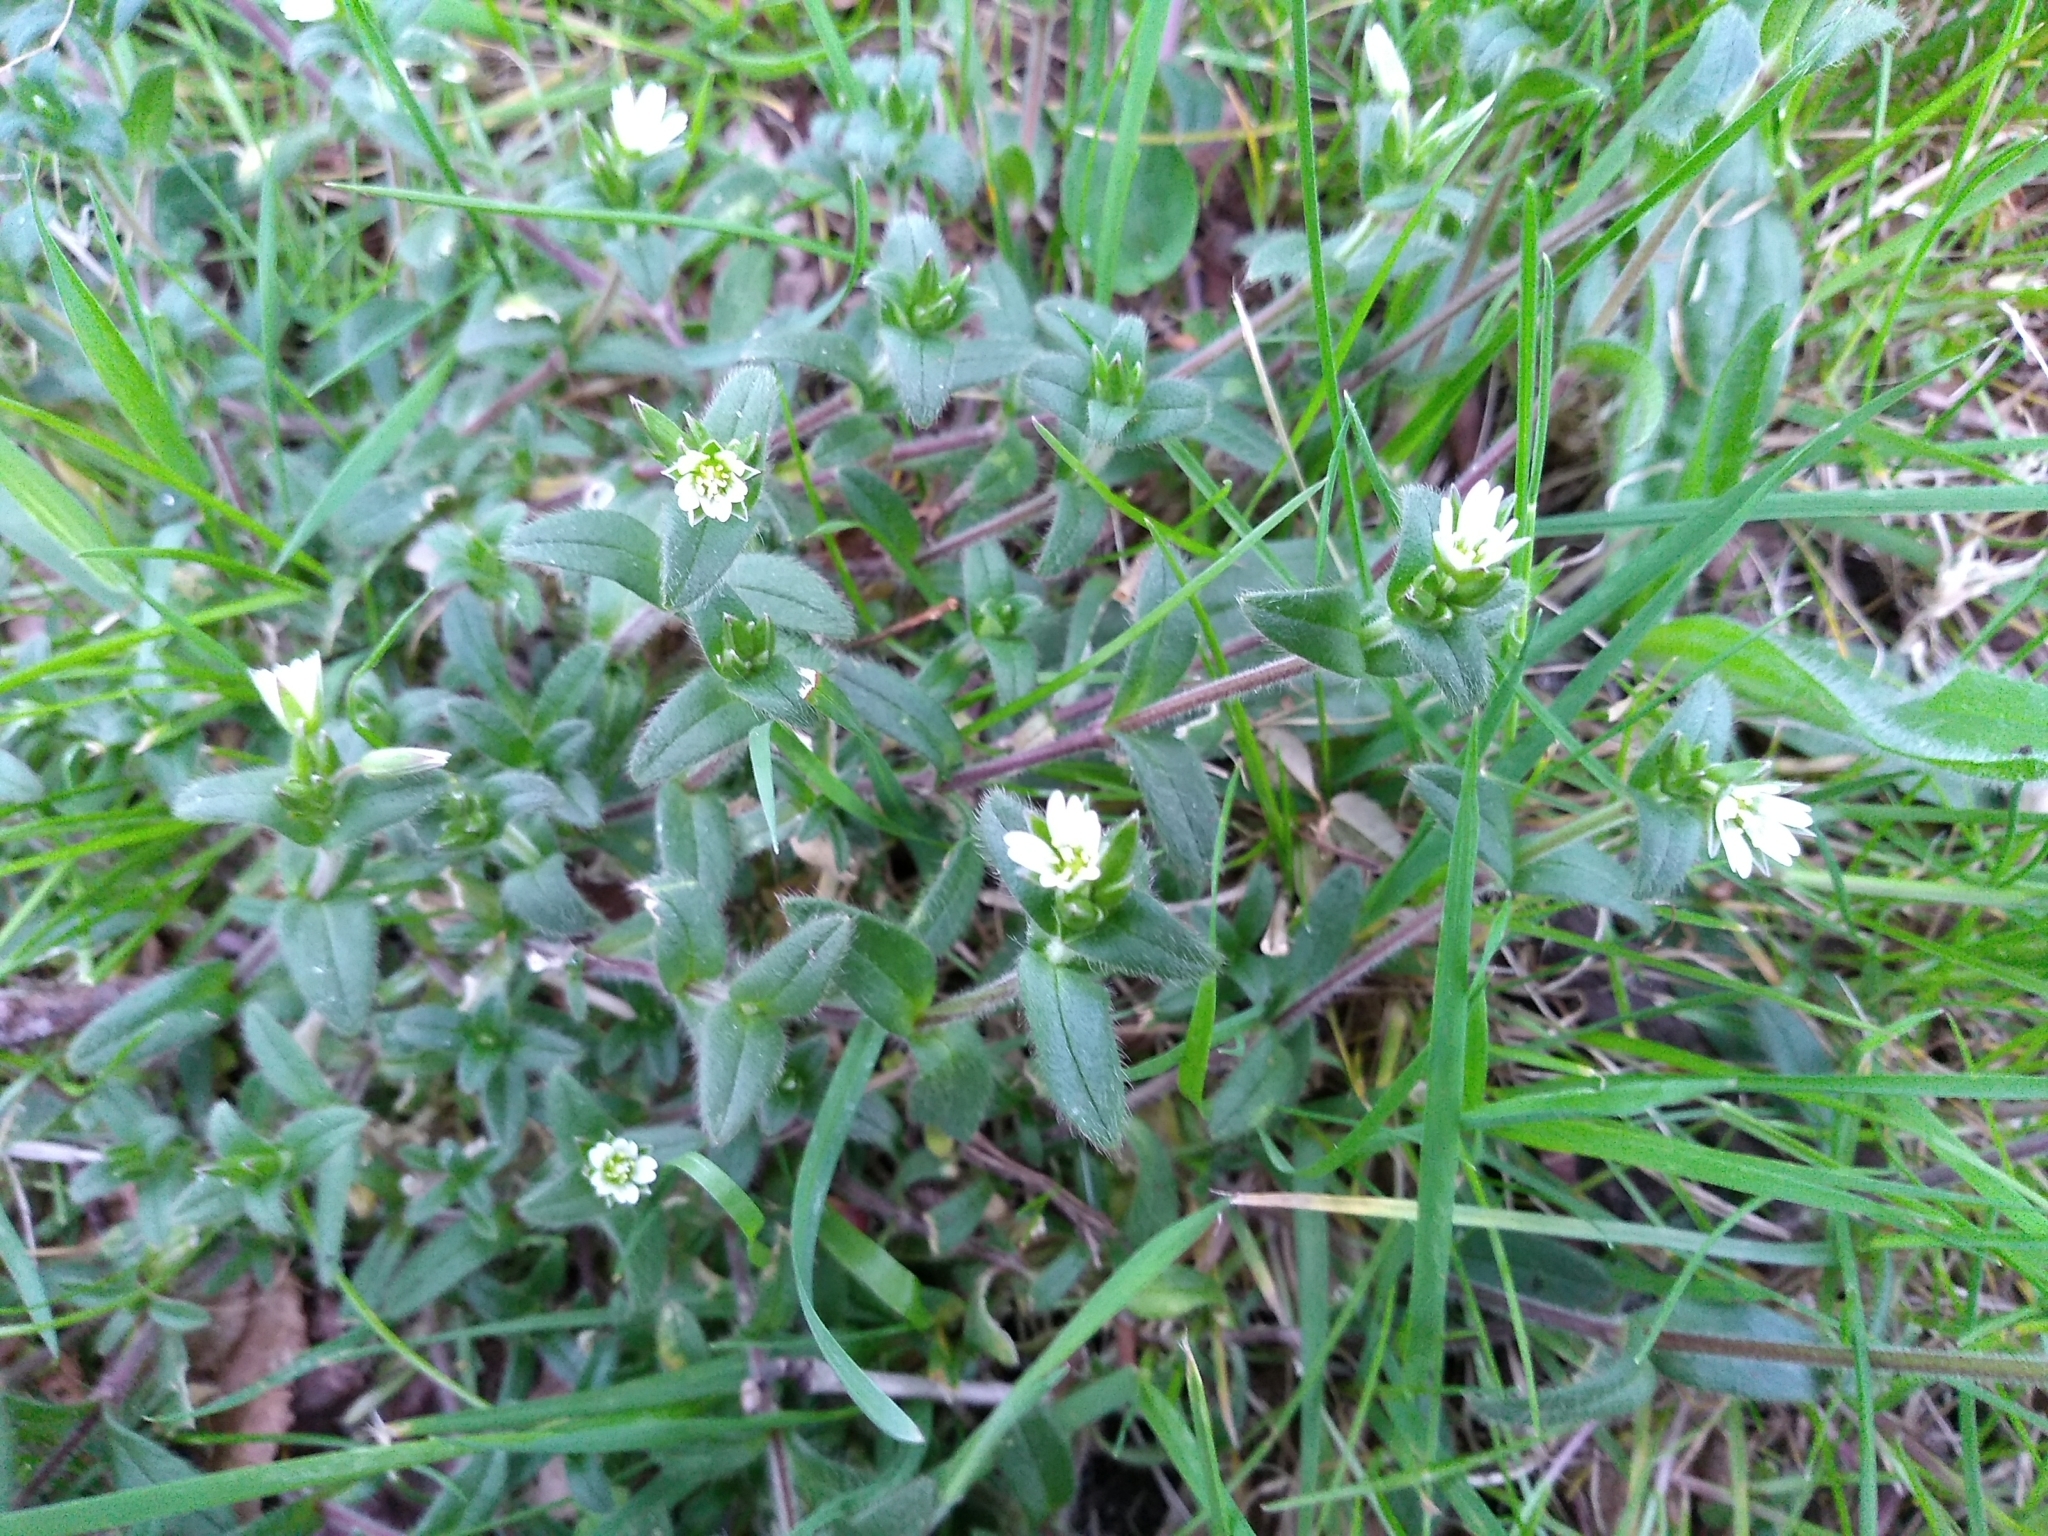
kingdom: Plantae
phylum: Tracheophyta
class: Magnoliopsida
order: Caryophyllales
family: Caryophyllaceae
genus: Cerastium
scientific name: Cerastium fontanum
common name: Common mouse-ear
